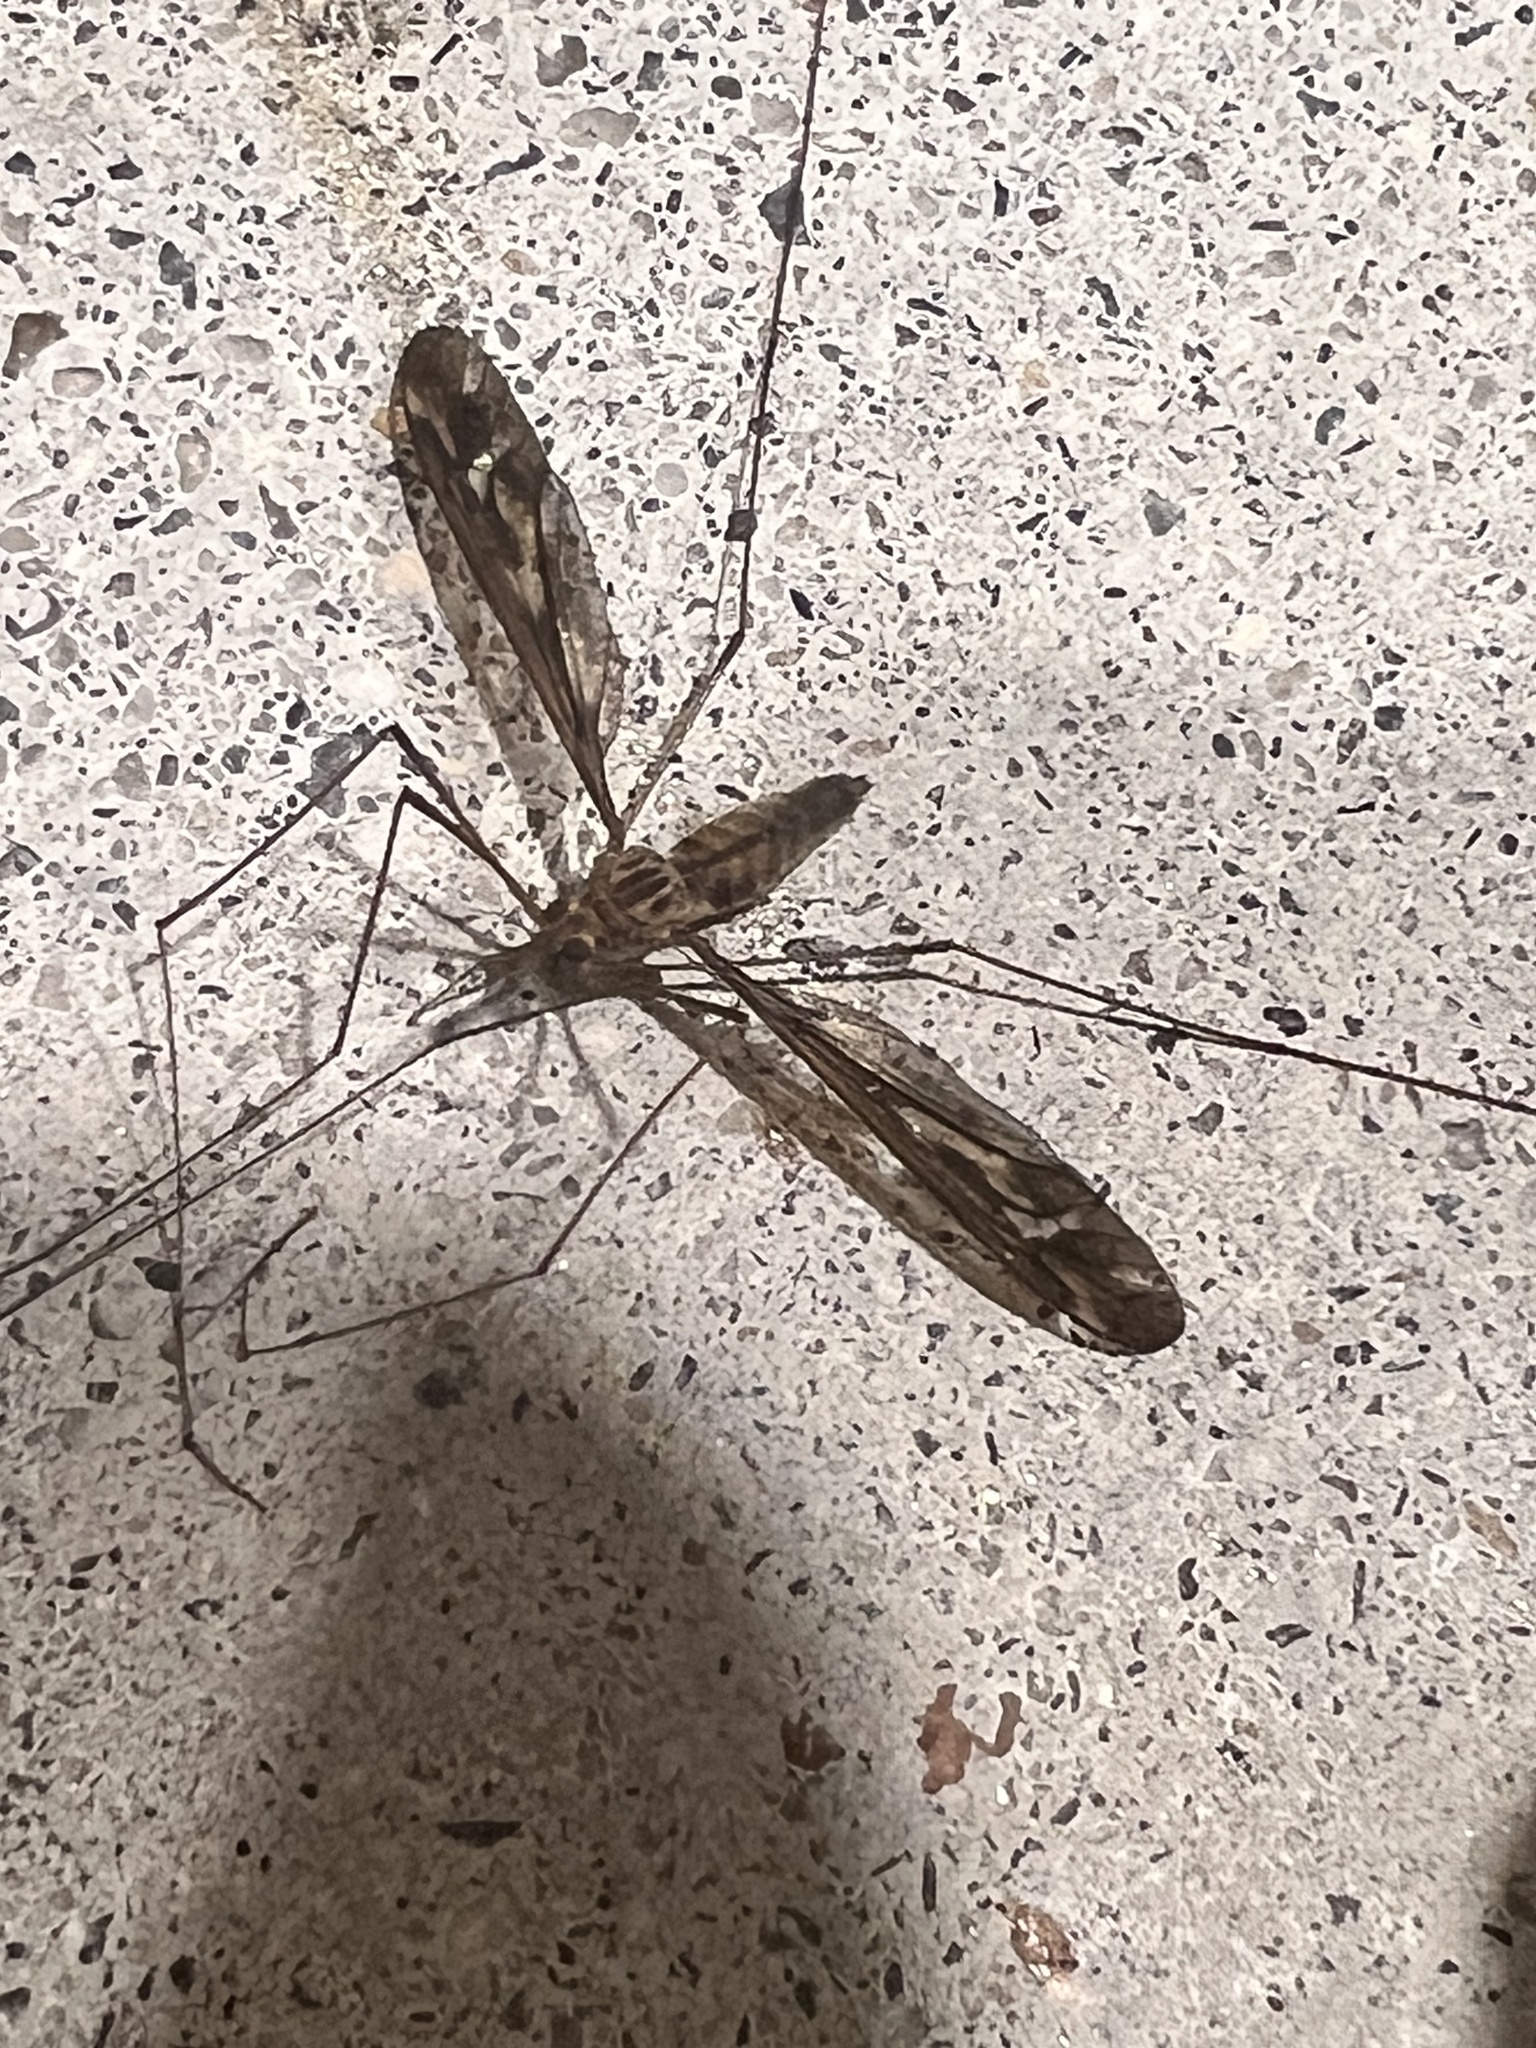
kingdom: Animalia
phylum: Arthropoda
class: Insecta
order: Diptera
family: Tipulidae
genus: Leptotarsus
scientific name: Leptotarsus huttoni
